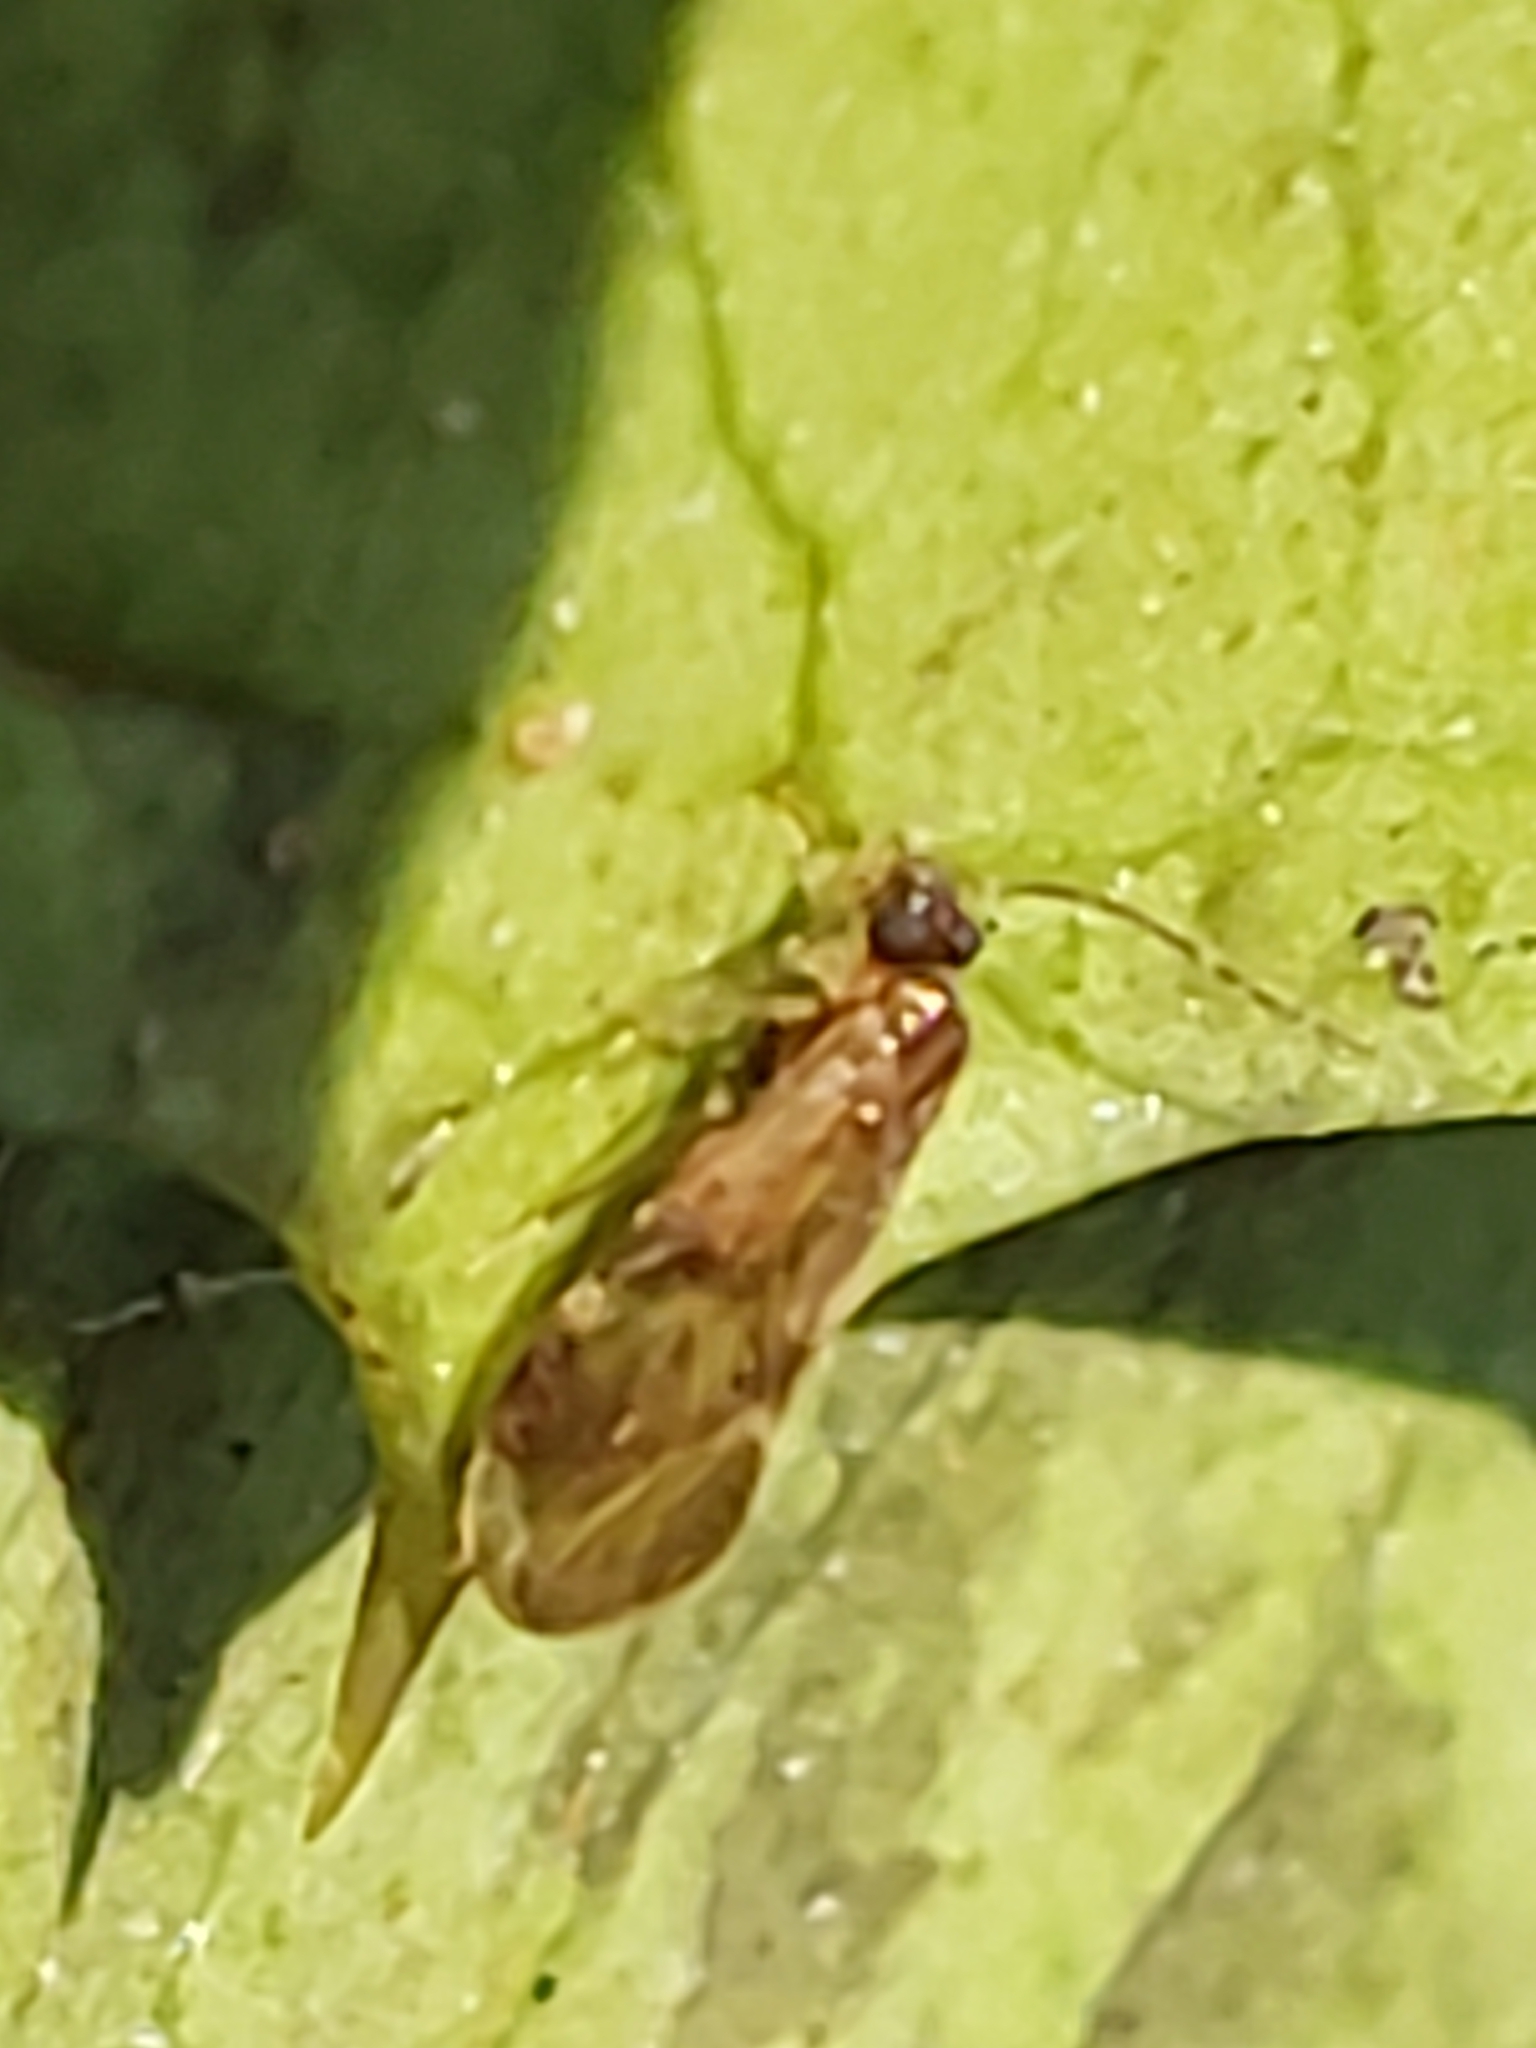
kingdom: Animalia
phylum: Arthropoda
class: Insecta
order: Psocodea
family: Amphipsocidae
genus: Polypsocus
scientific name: Polypsocus corruptus
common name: Corrupt barklouse
